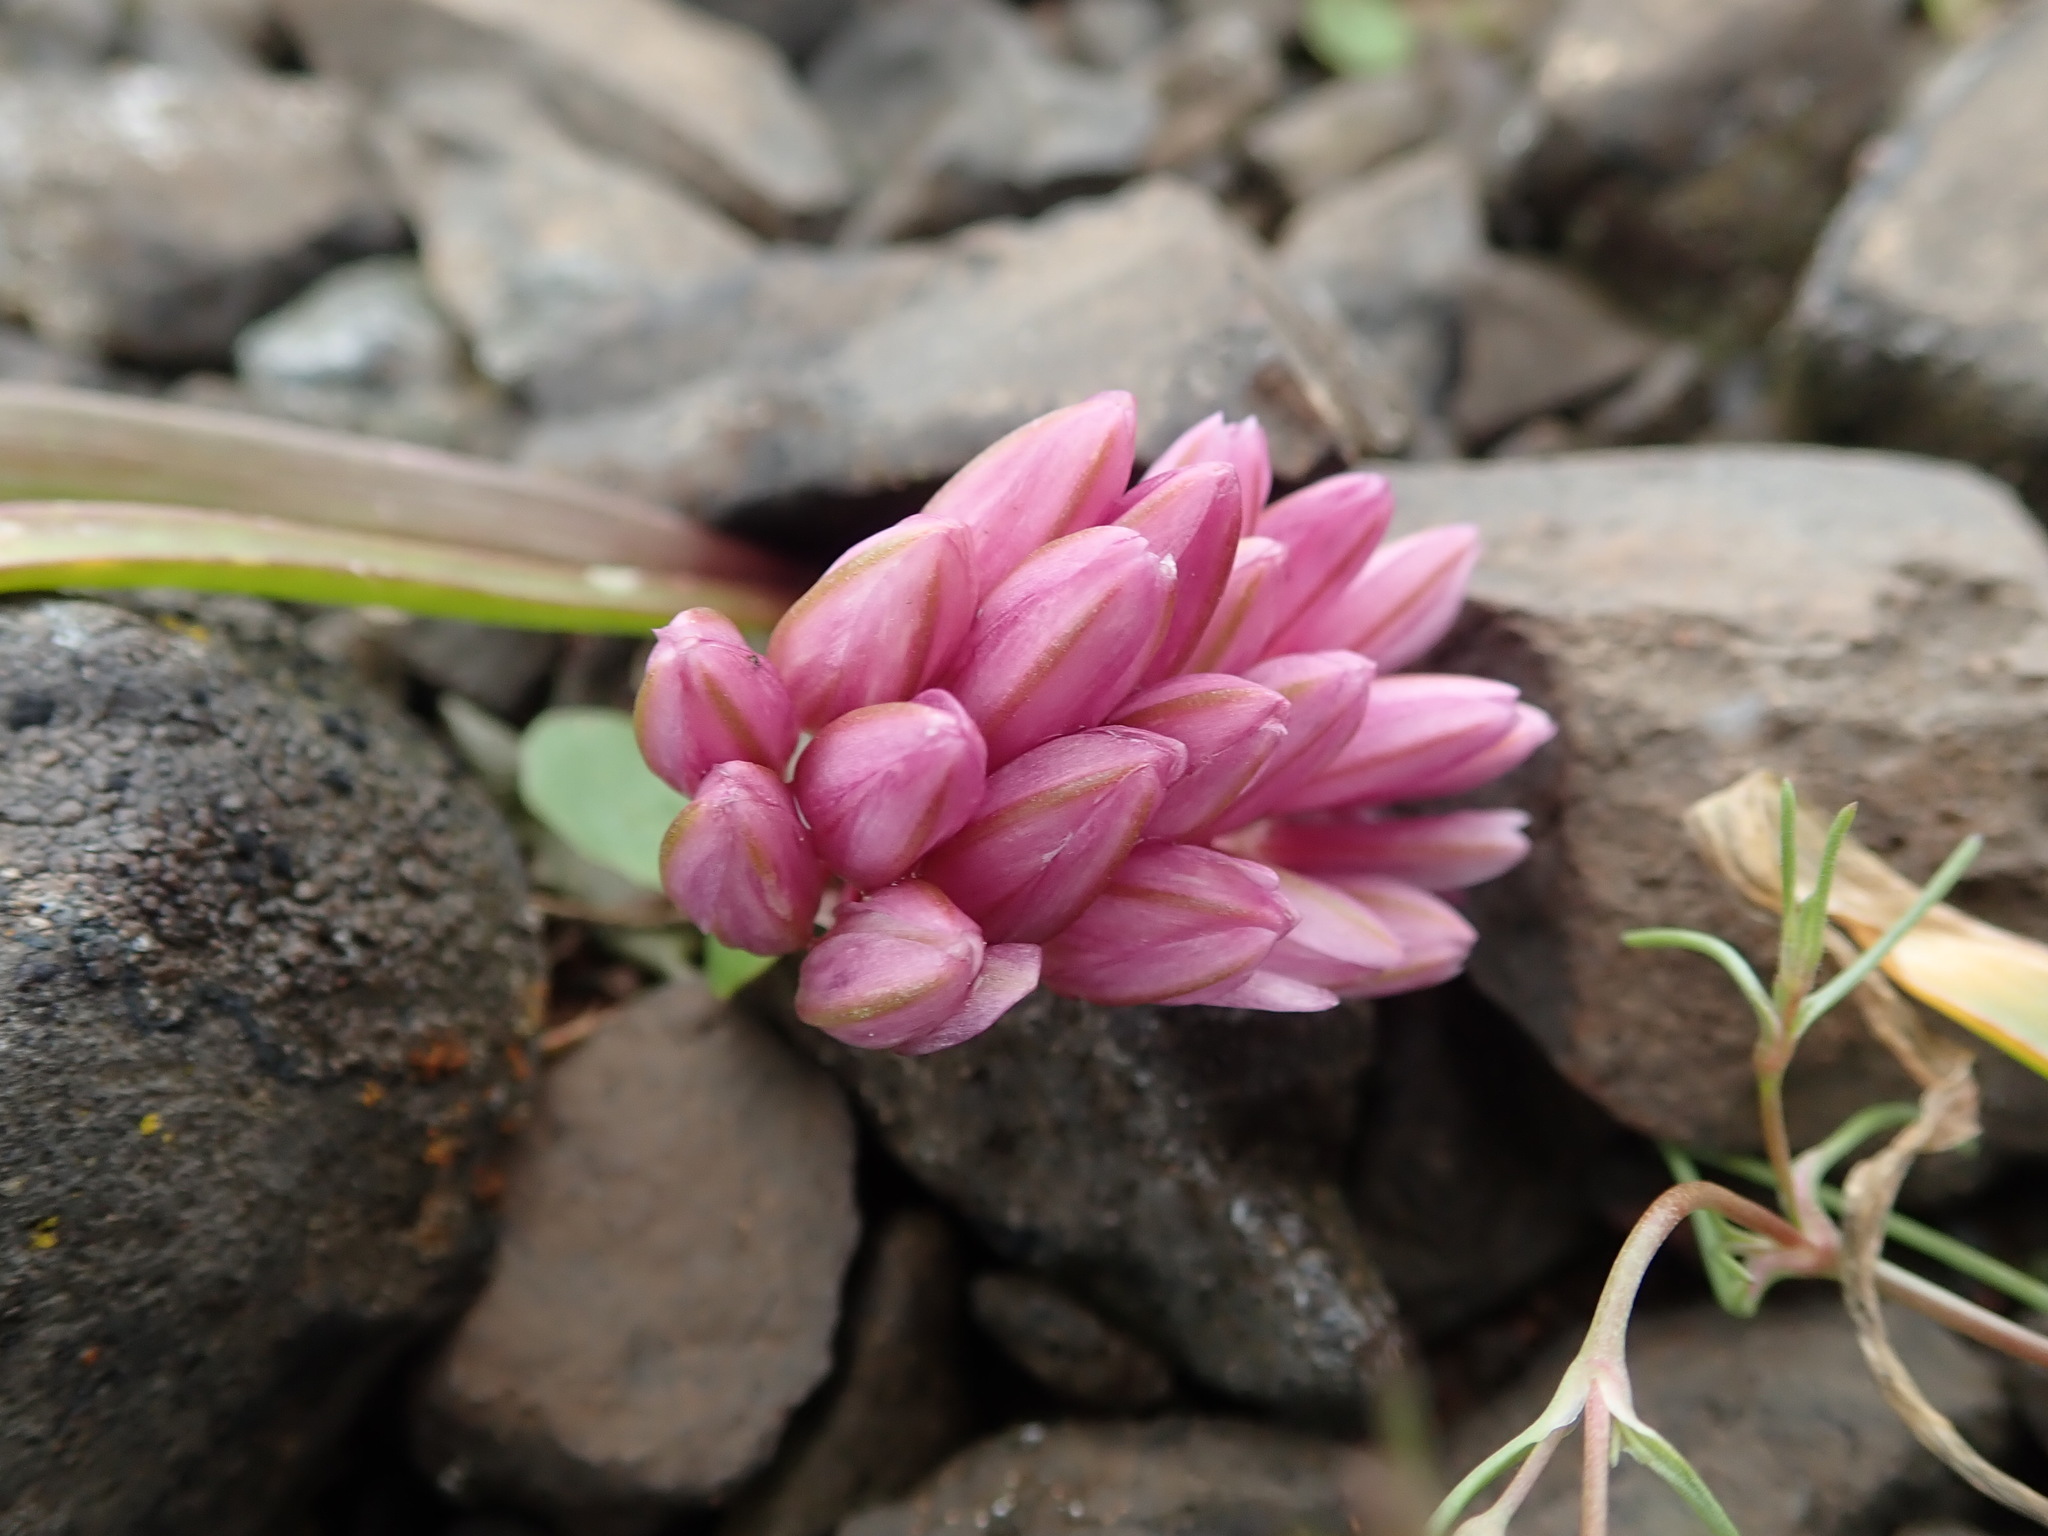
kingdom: Plantae
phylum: Tracheophyta
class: Liliopsida
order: Asparagales
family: Amaryllidaceae
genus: Allium
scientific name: Allium cratericola
